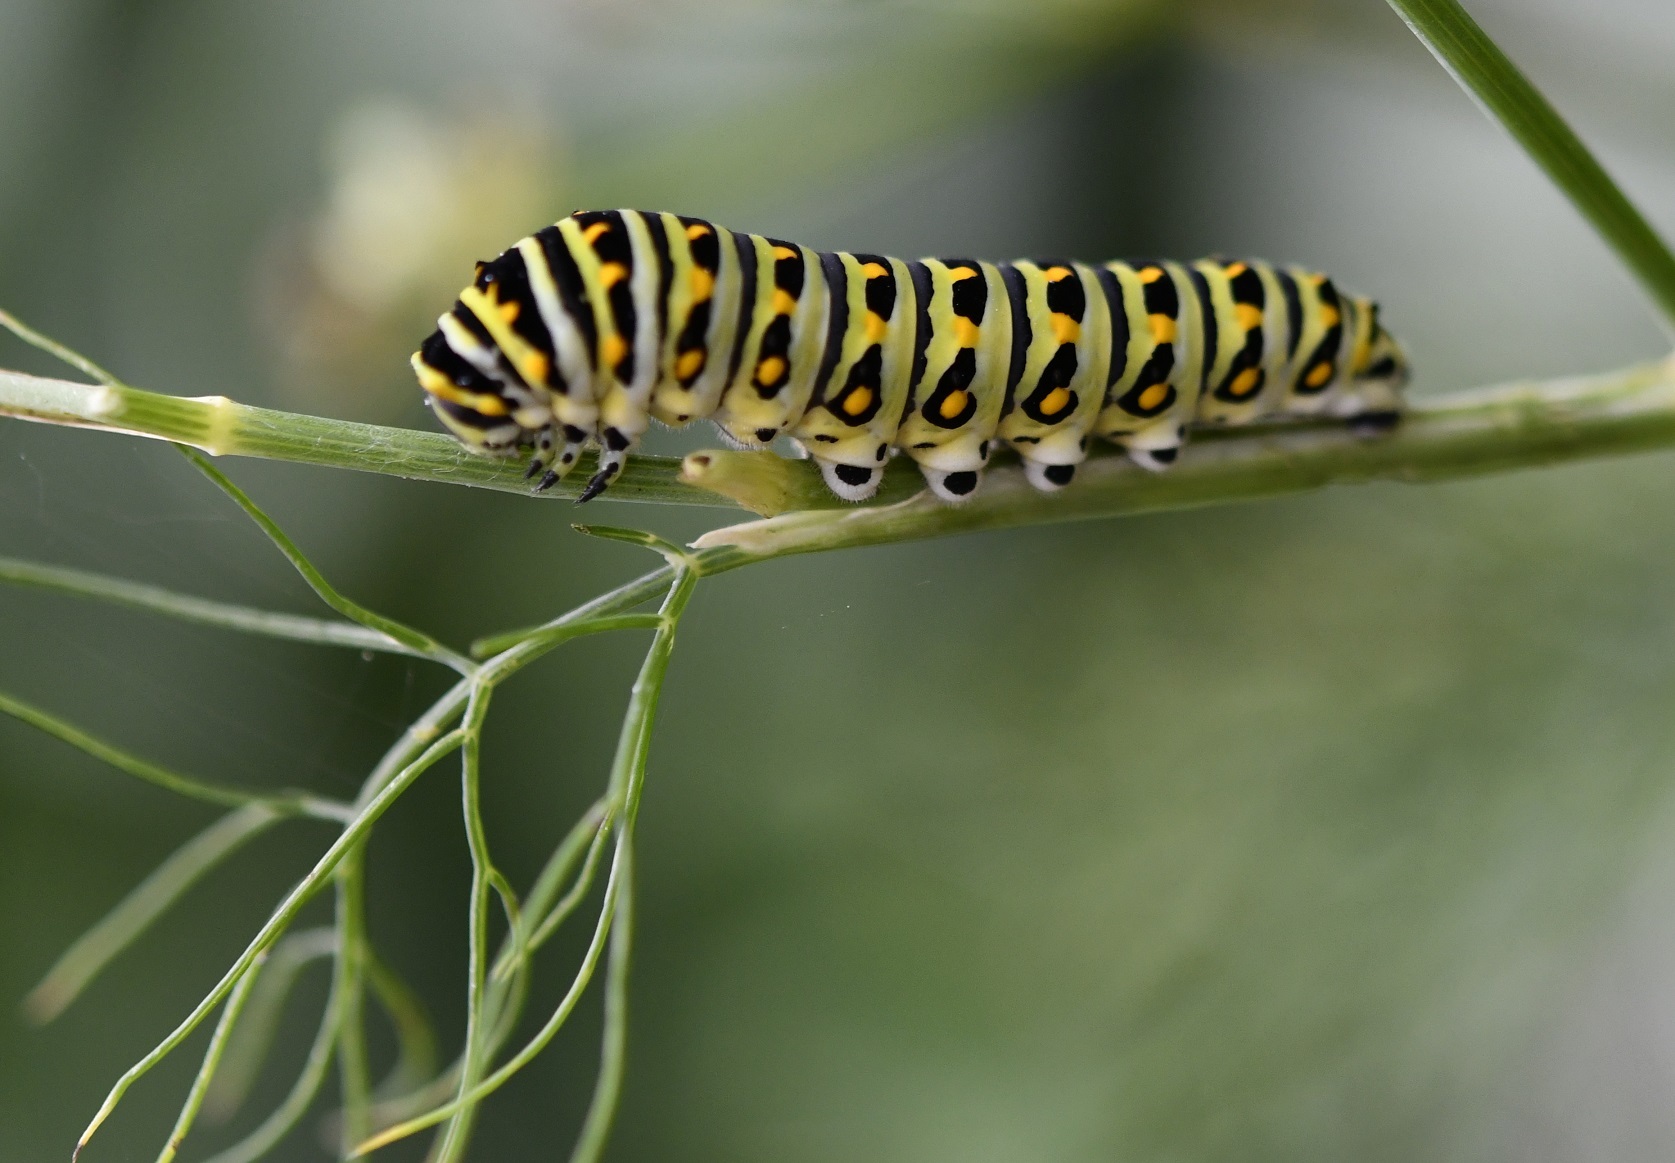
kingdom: Animalia
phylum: Arthropoda
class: Insecta
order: Lepidoptera
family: Papilionidae
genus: Papilio
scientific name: Papilio polyxenes
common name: Black swallowtail
